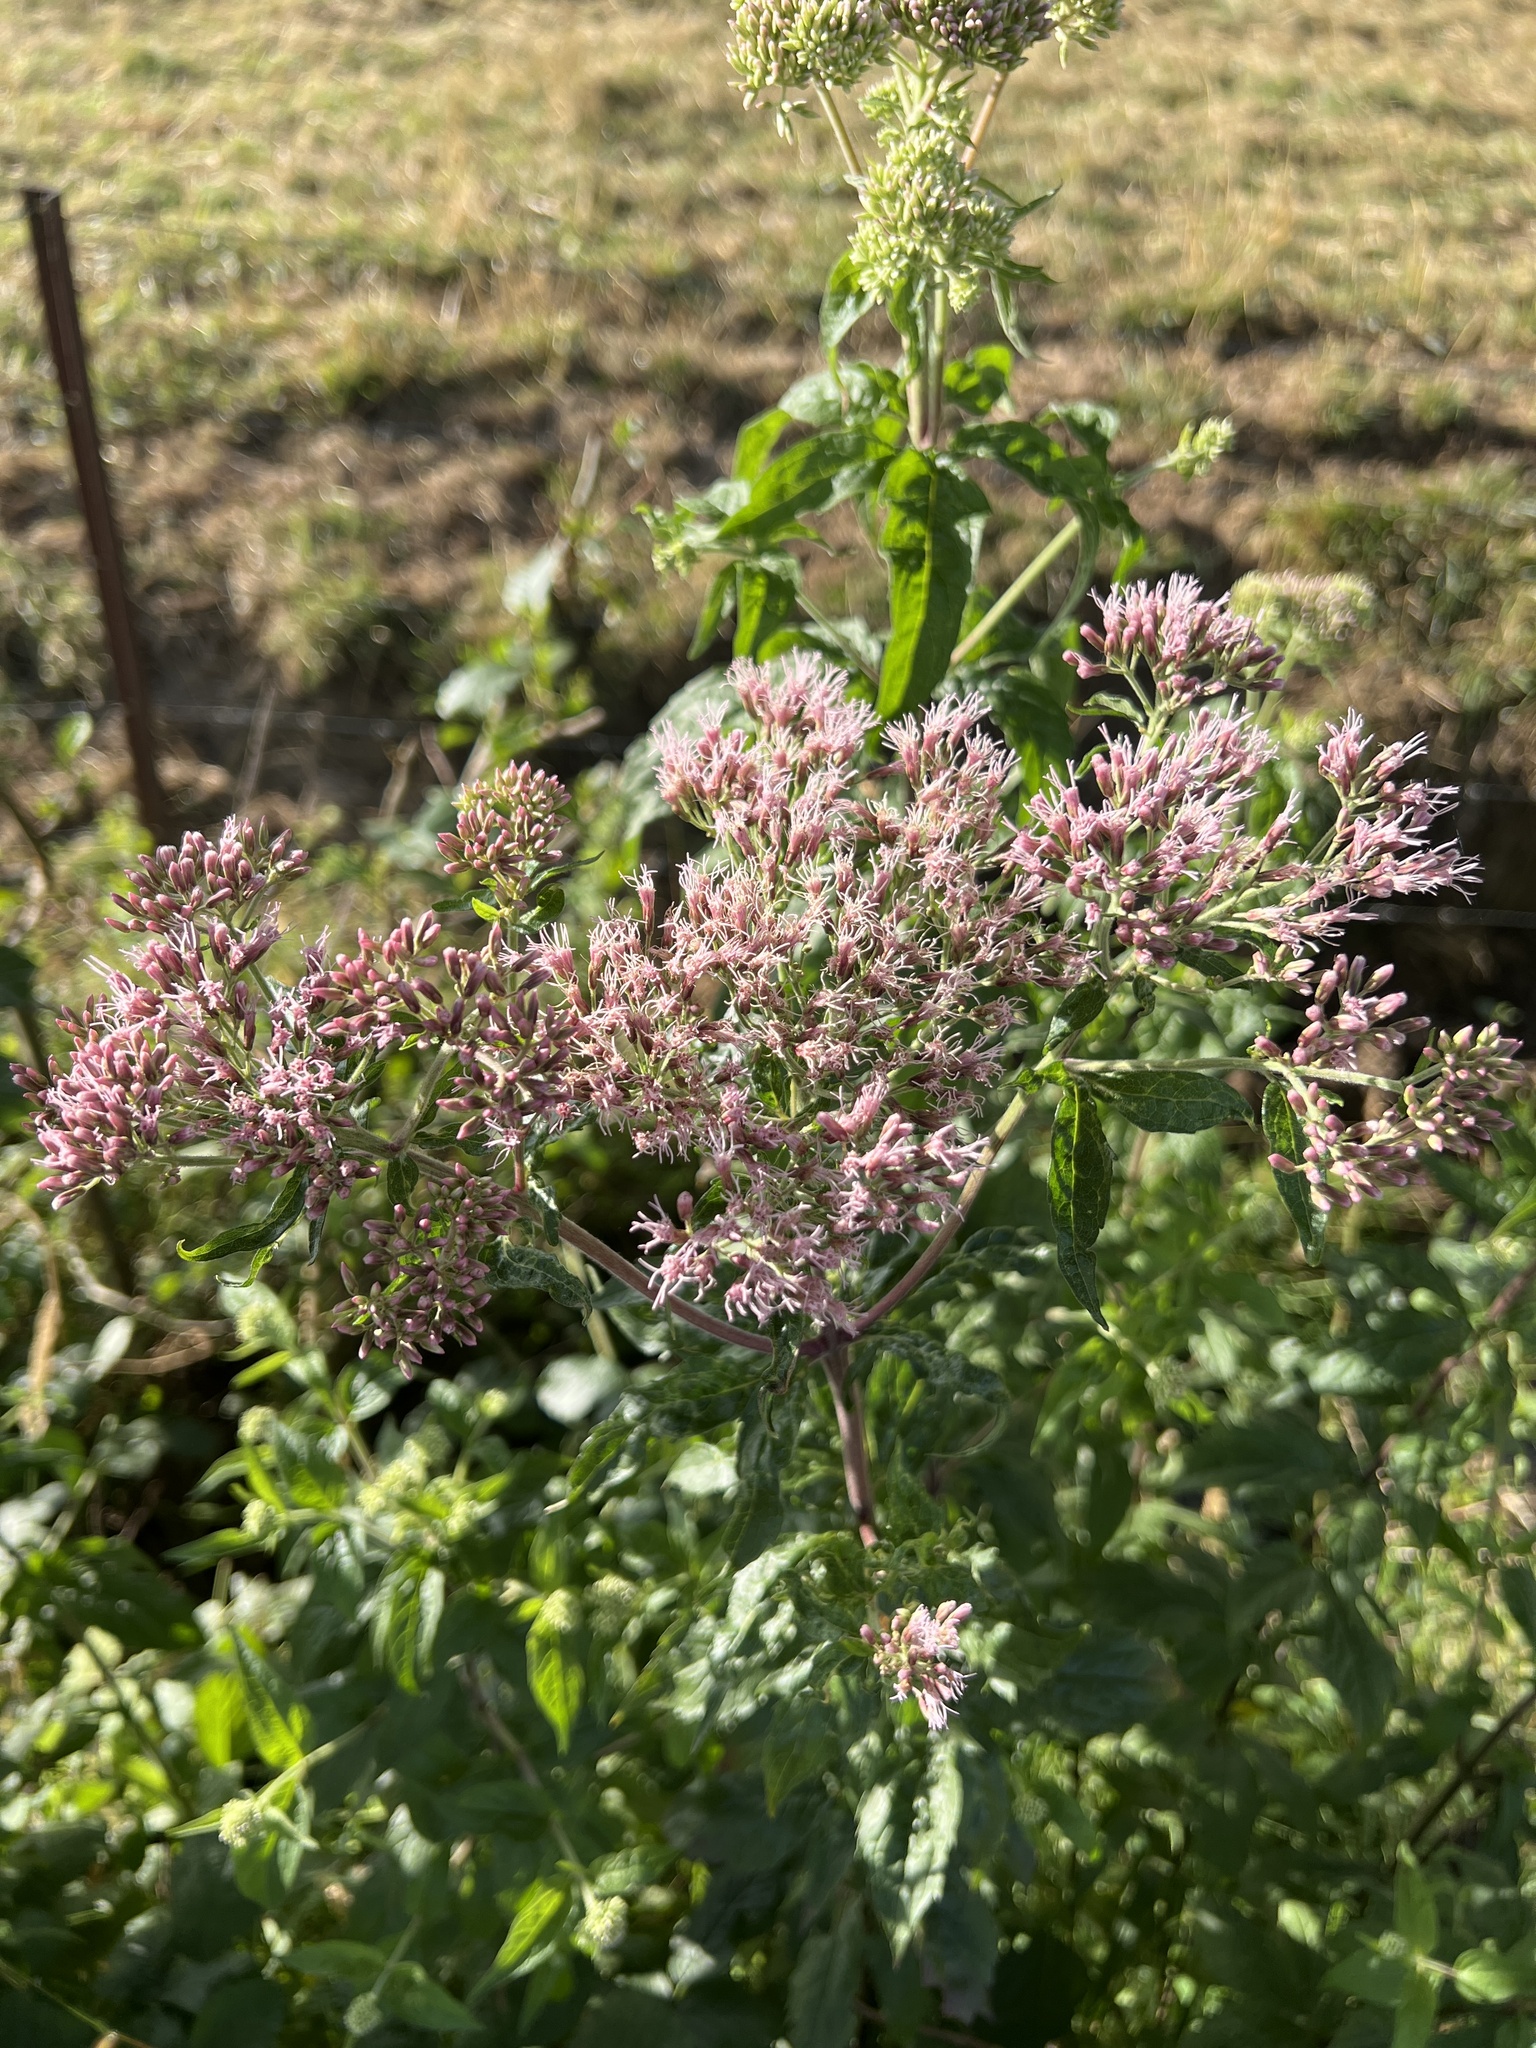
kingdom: Plantae
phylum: Tracheophyta
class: Magnoliopsida
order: Asterales
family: Asteraceae
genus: Eupatorium
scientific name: Eupatorium cannabinum
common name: Hemp-agrimony
